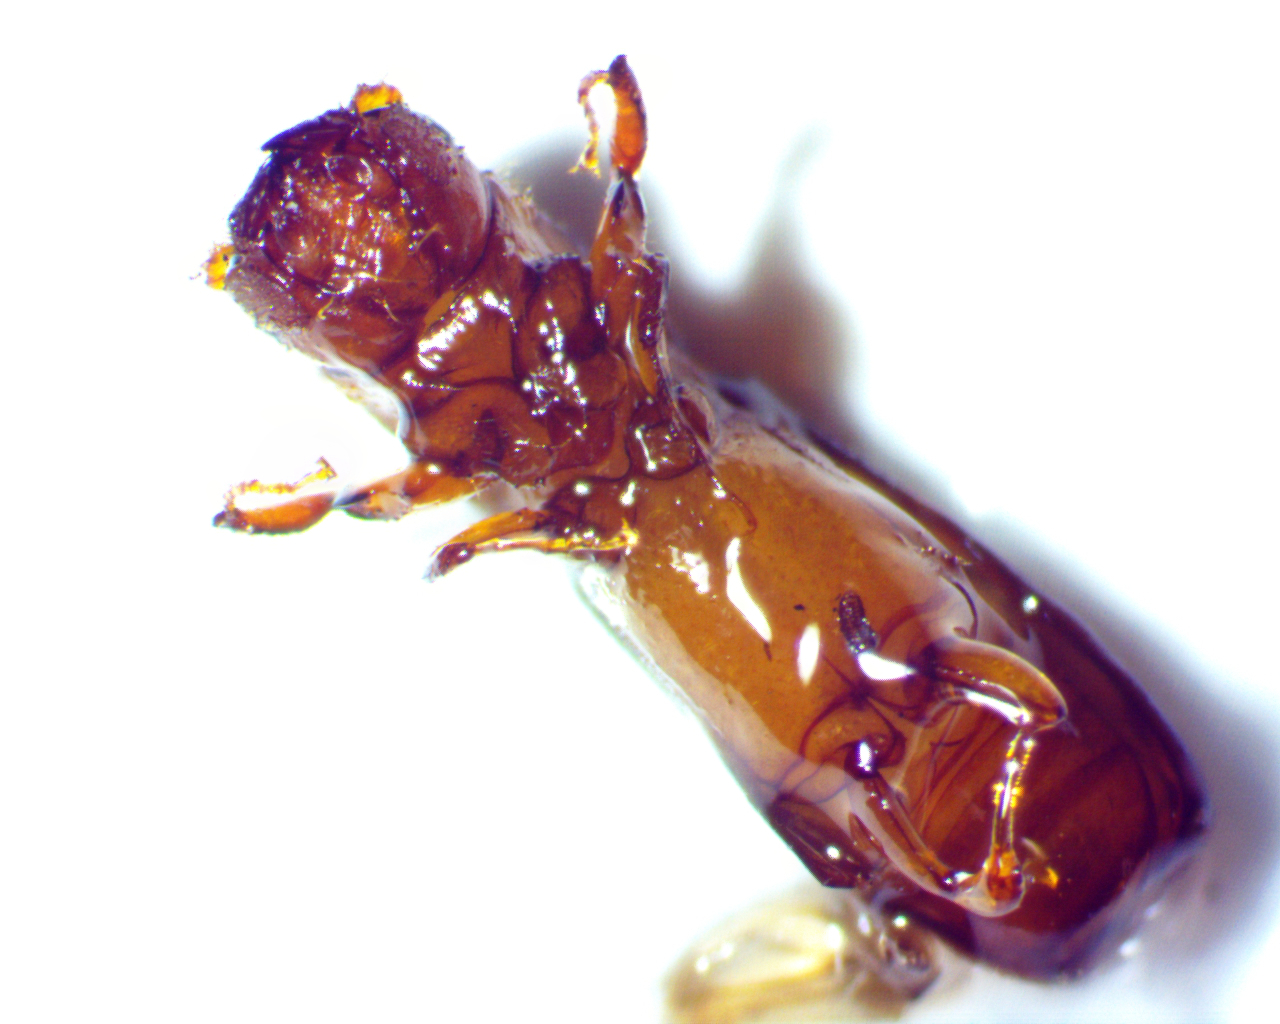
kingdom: Animalia
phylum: Arthropoda
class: Insecta
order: Coleoptera
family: Curculionidae
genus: Euplatypus
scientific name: Euplatypus compositus
